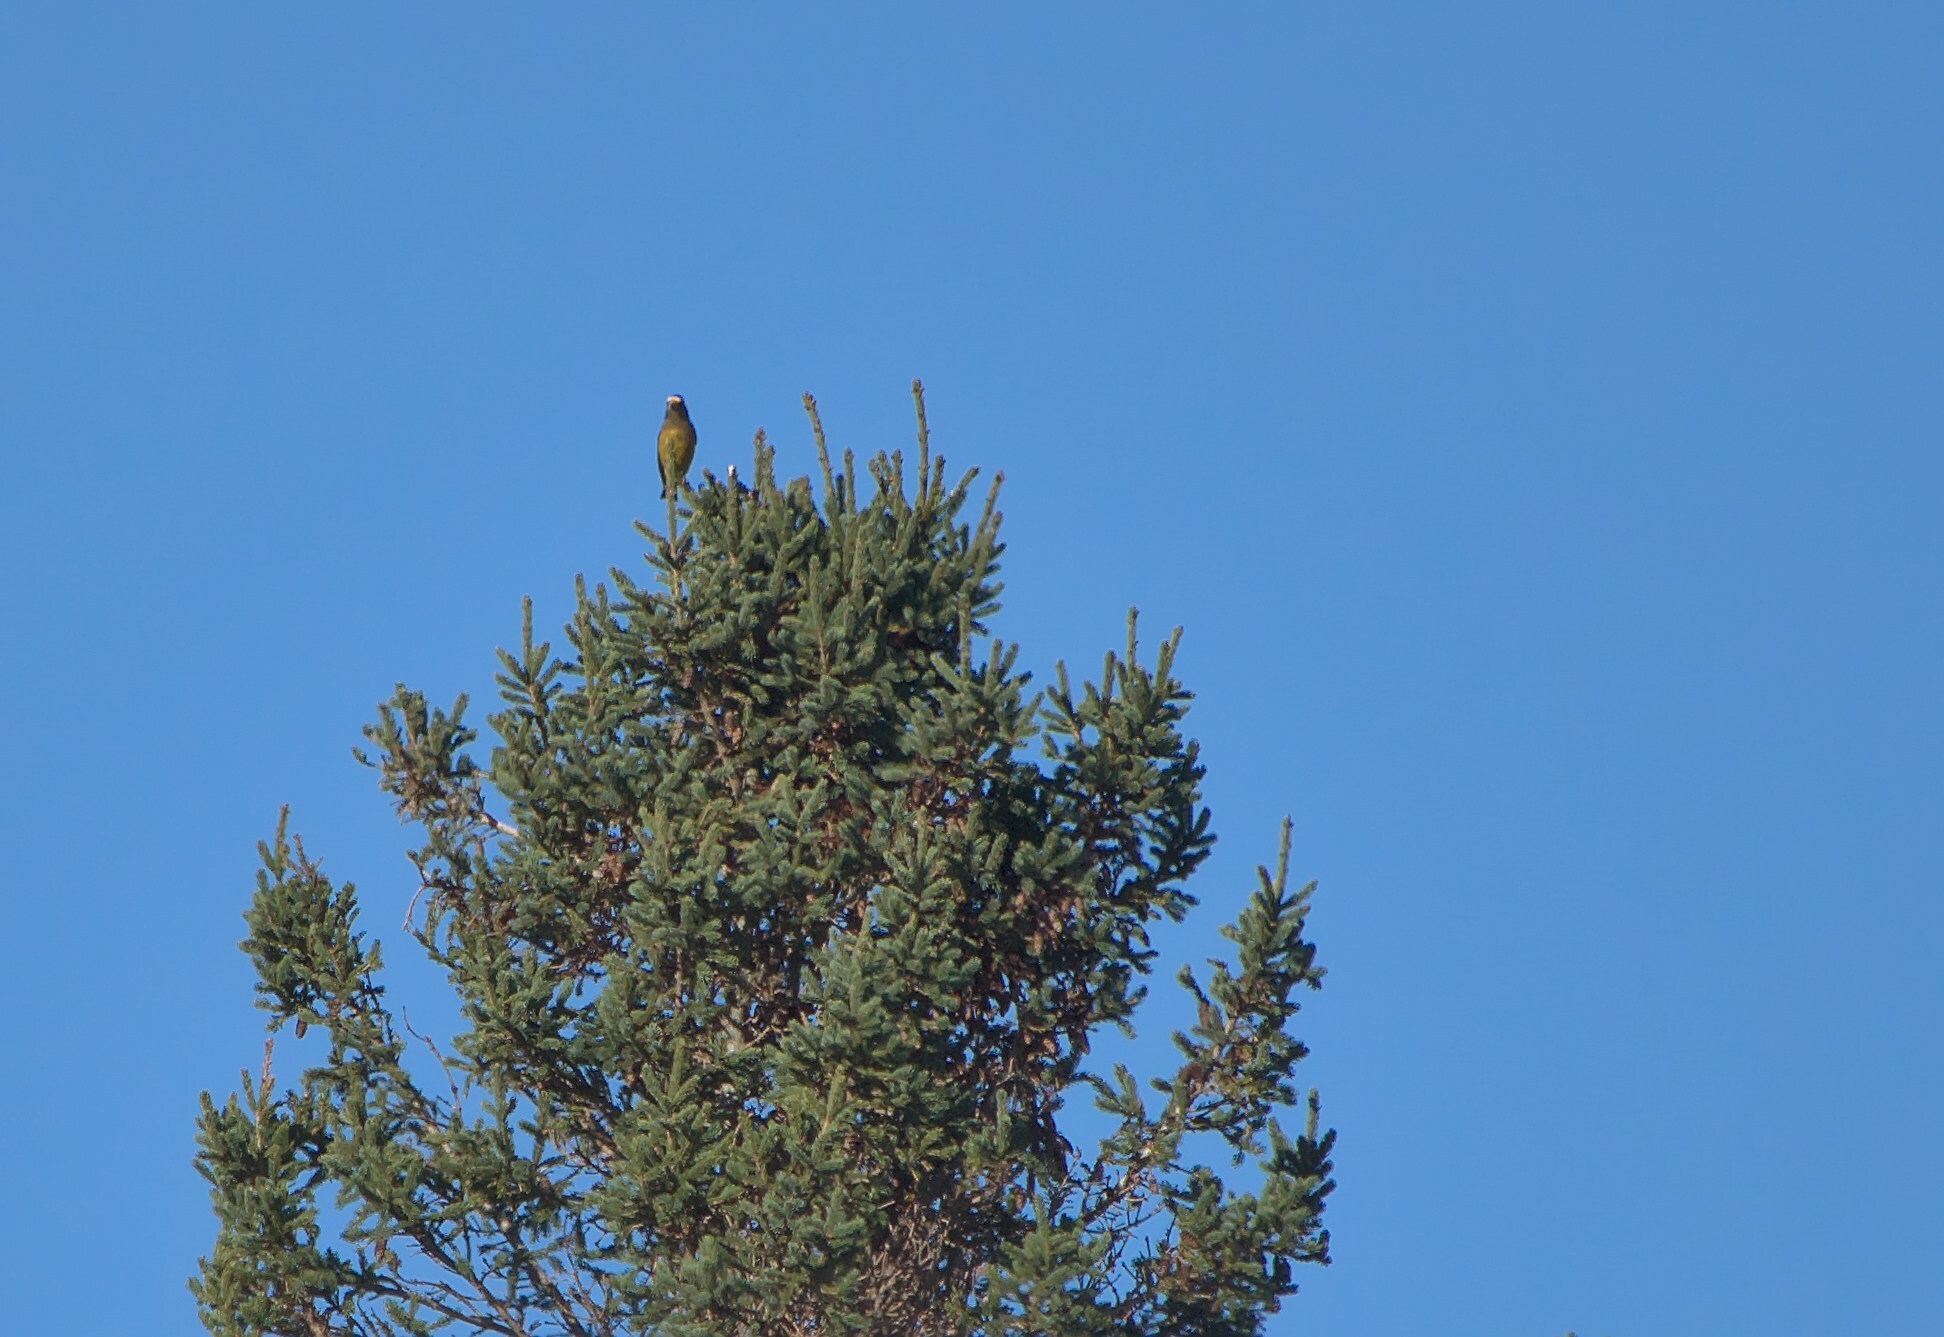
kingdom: Animalia
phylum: Chordata
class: Aves
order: Passeriformes
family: Fringillidae
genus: Hesperiphona
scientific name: Hesperiphona vespertina
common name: Evening grosbeak
